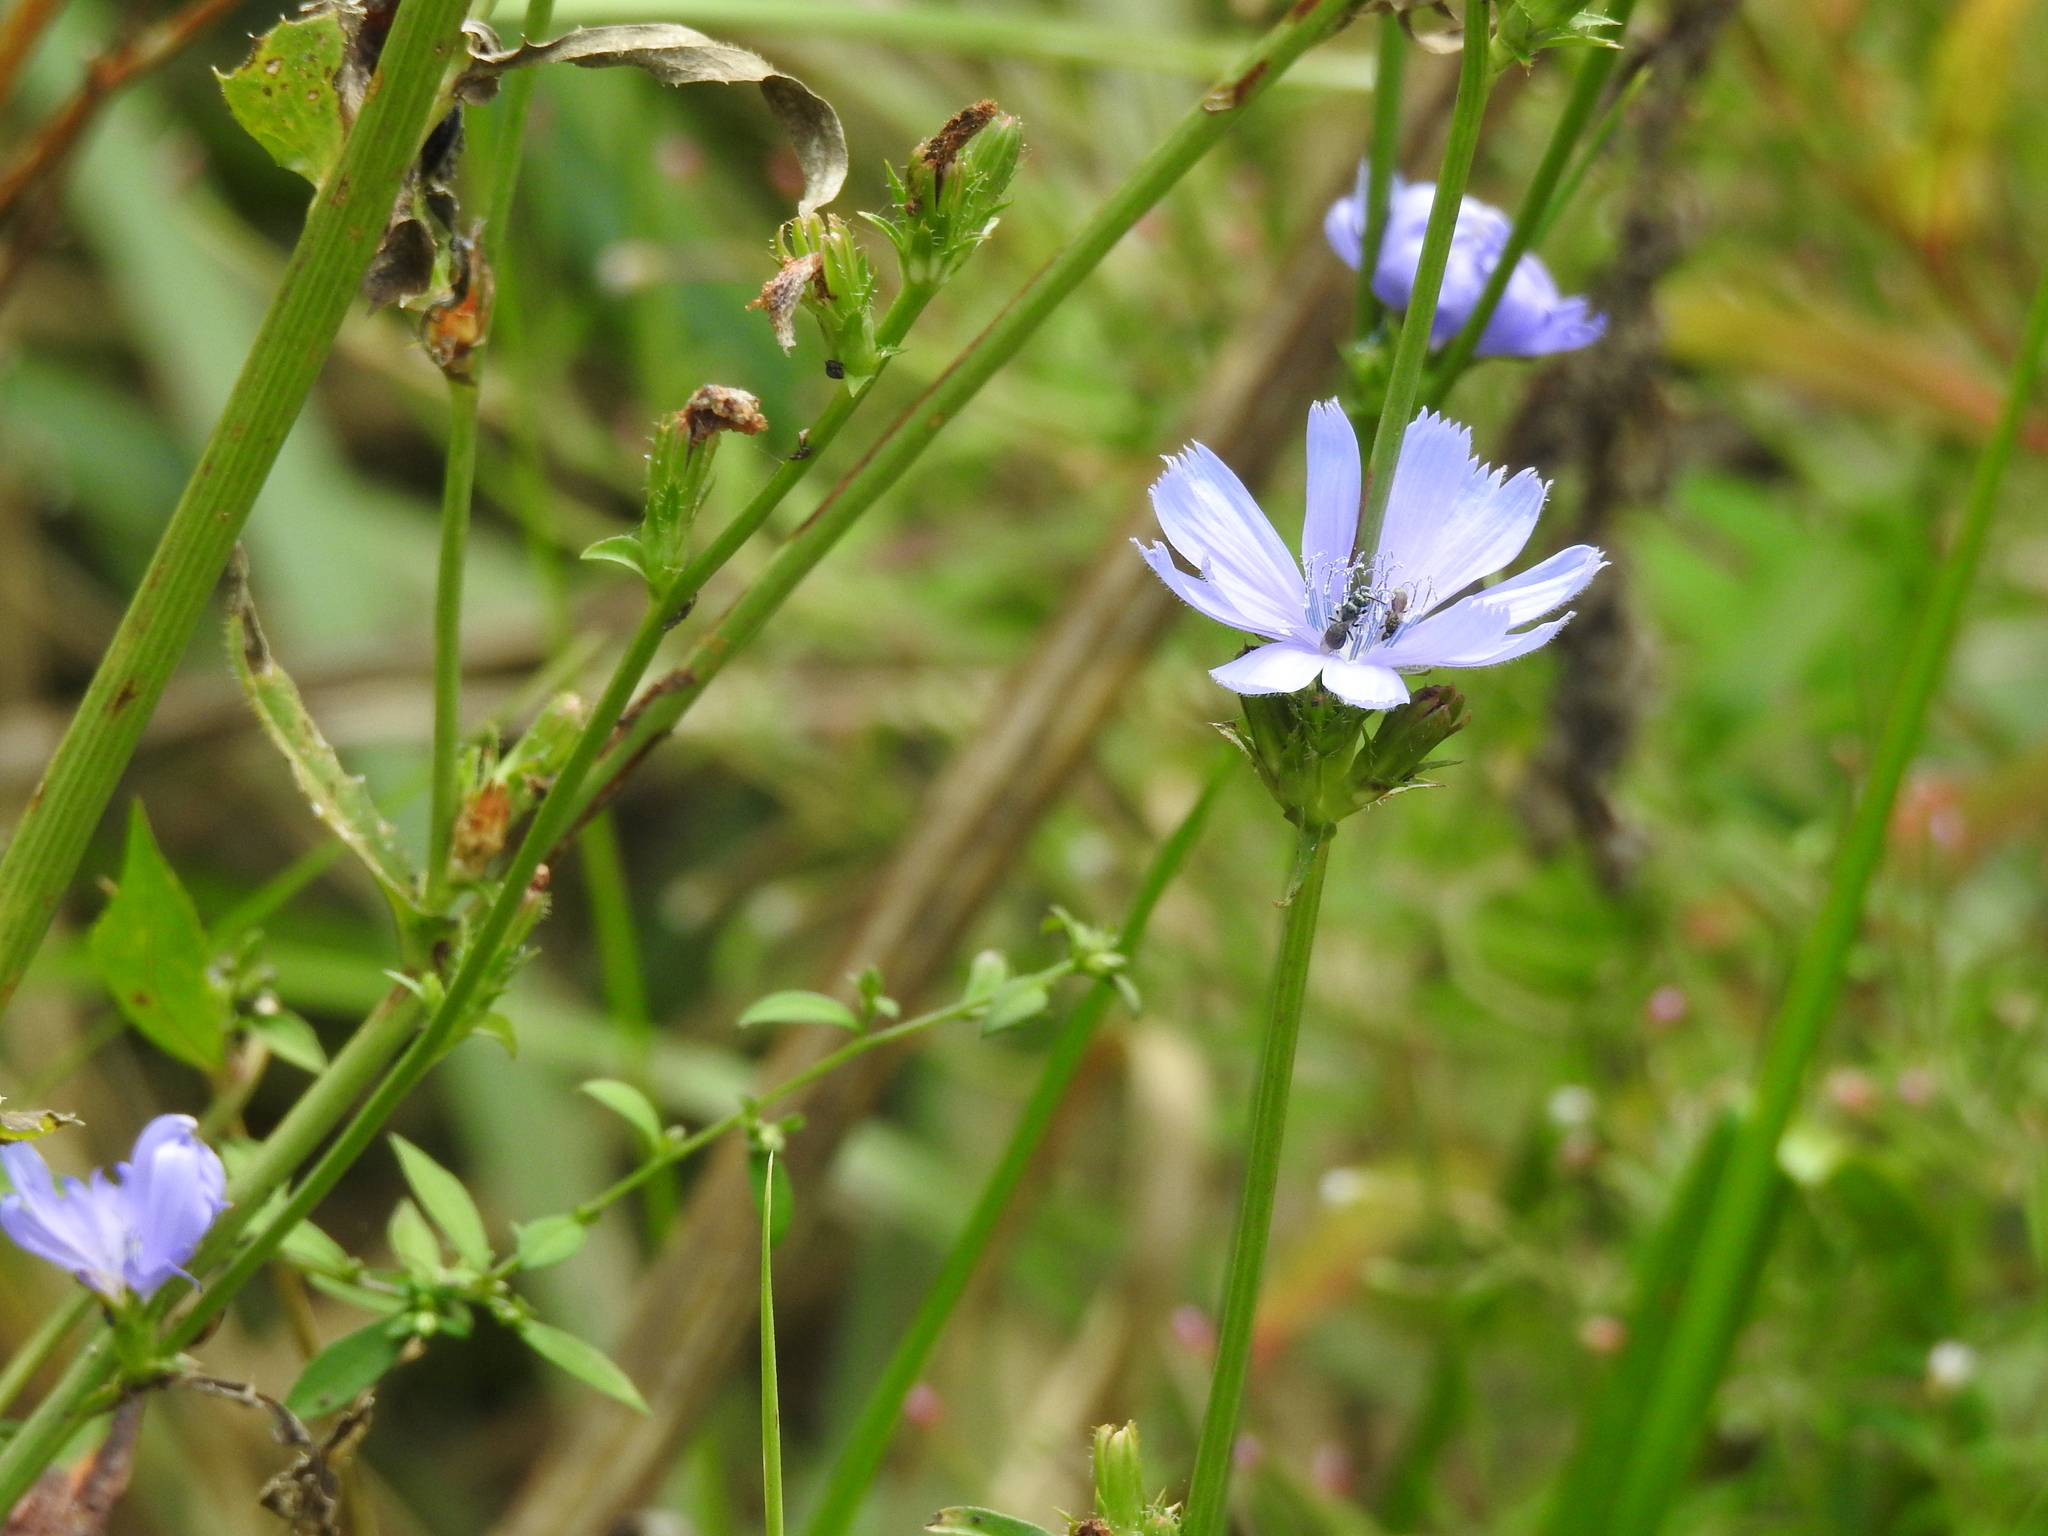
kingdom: Plantae
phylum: Tracheophyta
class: Magnoliopsida
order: Asterales
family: Asteraceae
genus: Cichorium
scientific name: Cichorium intybus
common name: Chicory
